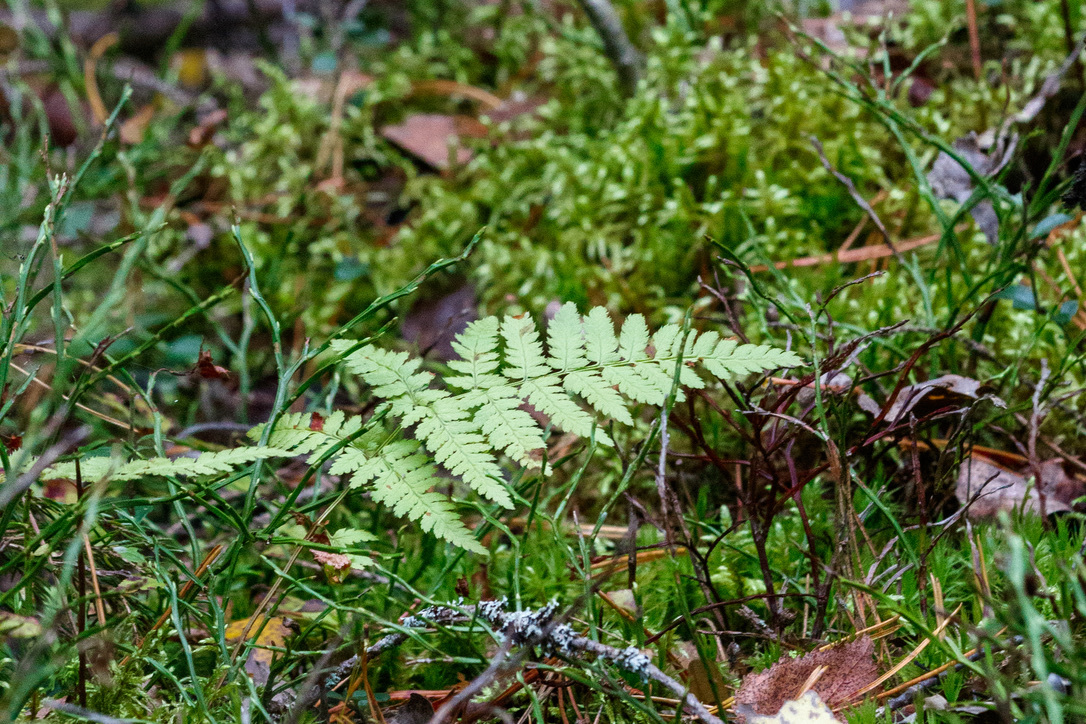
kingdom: Plantae
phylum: Tracheophyta
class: Polypodiopsida
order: Polypodiales
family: Dryopteridaceae
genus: Dryopteris
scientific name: Dryopteris carthusiana
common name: Narrow buckler-fern
